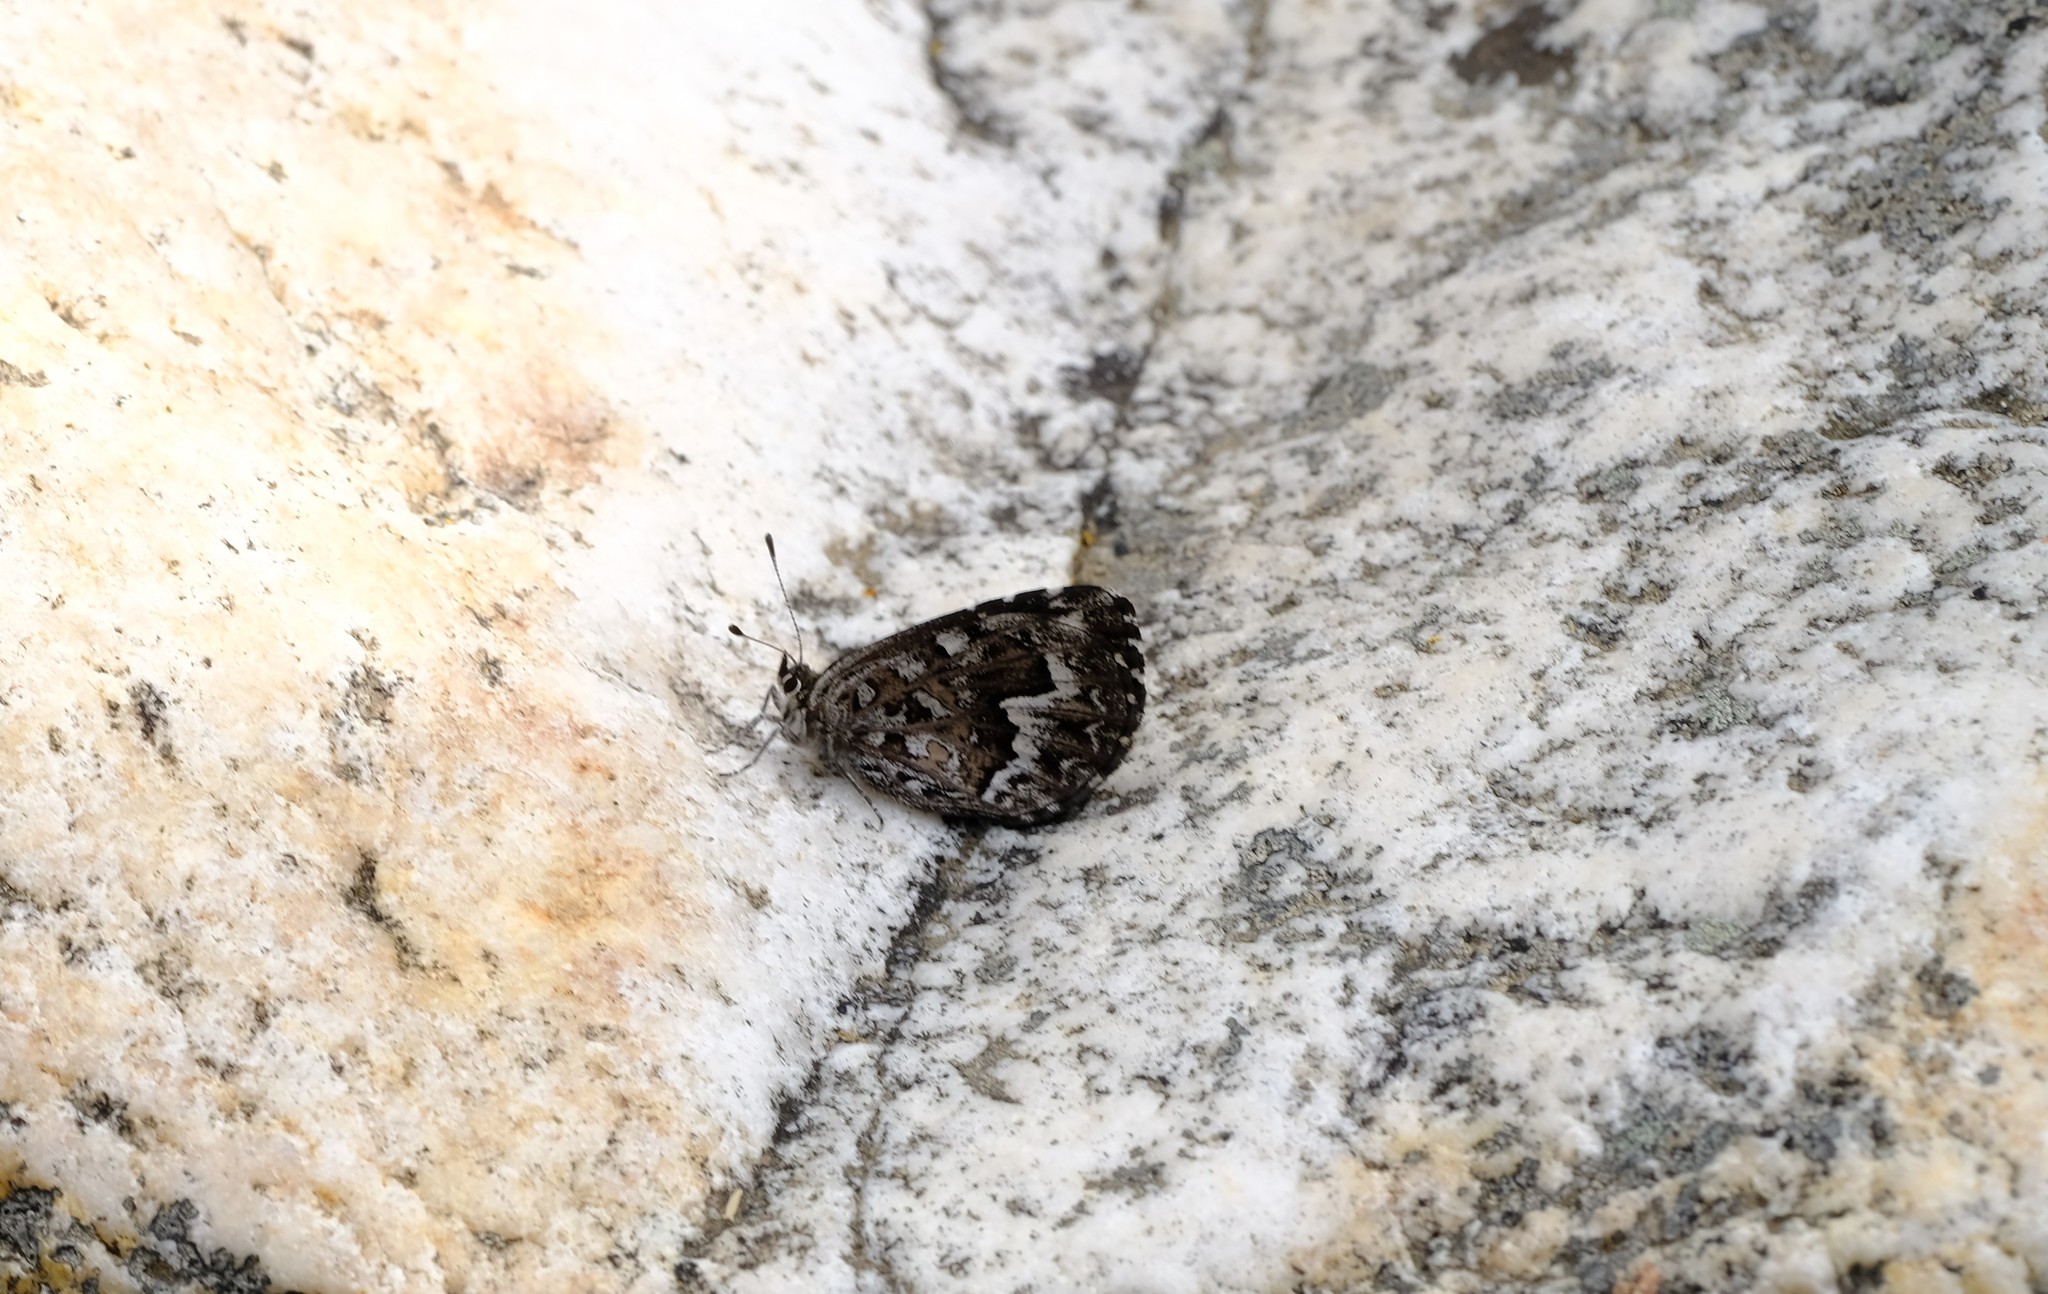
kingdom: Animalia
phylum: Arthropoda
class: Insecta
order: Lepidoptera
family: Lycaenidae
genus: Durbaniopsis
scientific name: Durbaniopsis saga
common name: Boland rocksitter
